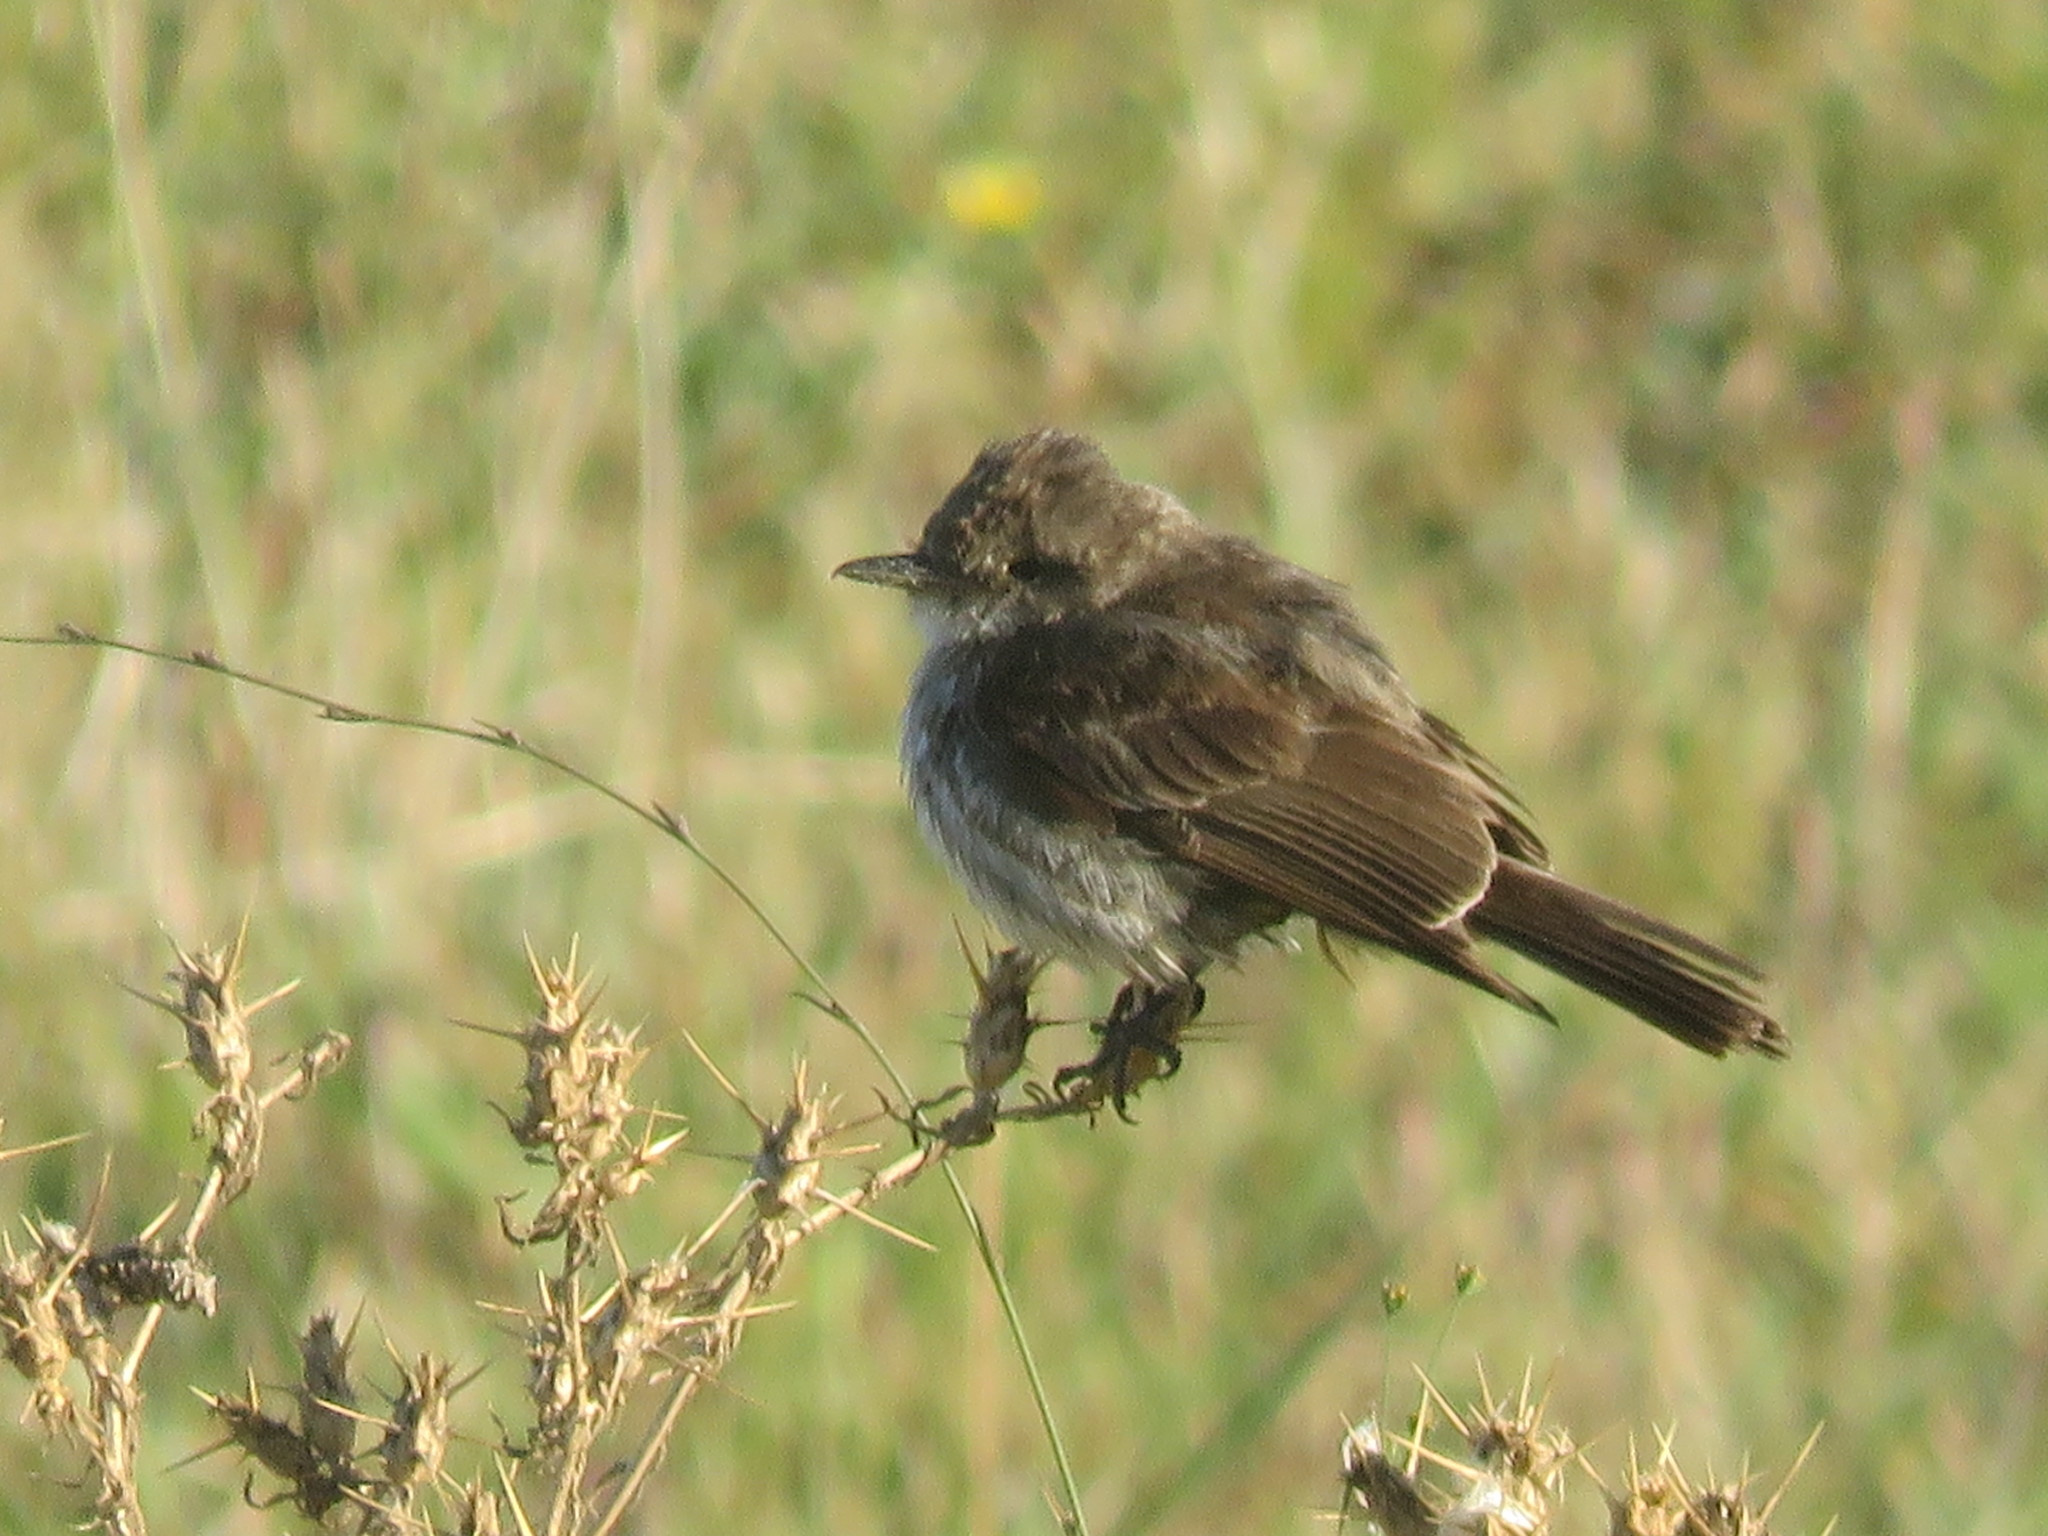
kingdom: Animalia
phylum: Chordata
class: Aves
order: Passeriformes
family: Tyrannidae
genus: Pyrocephalus
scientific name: Pyrocephalus rubinus
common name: Vermilion flycatcher
